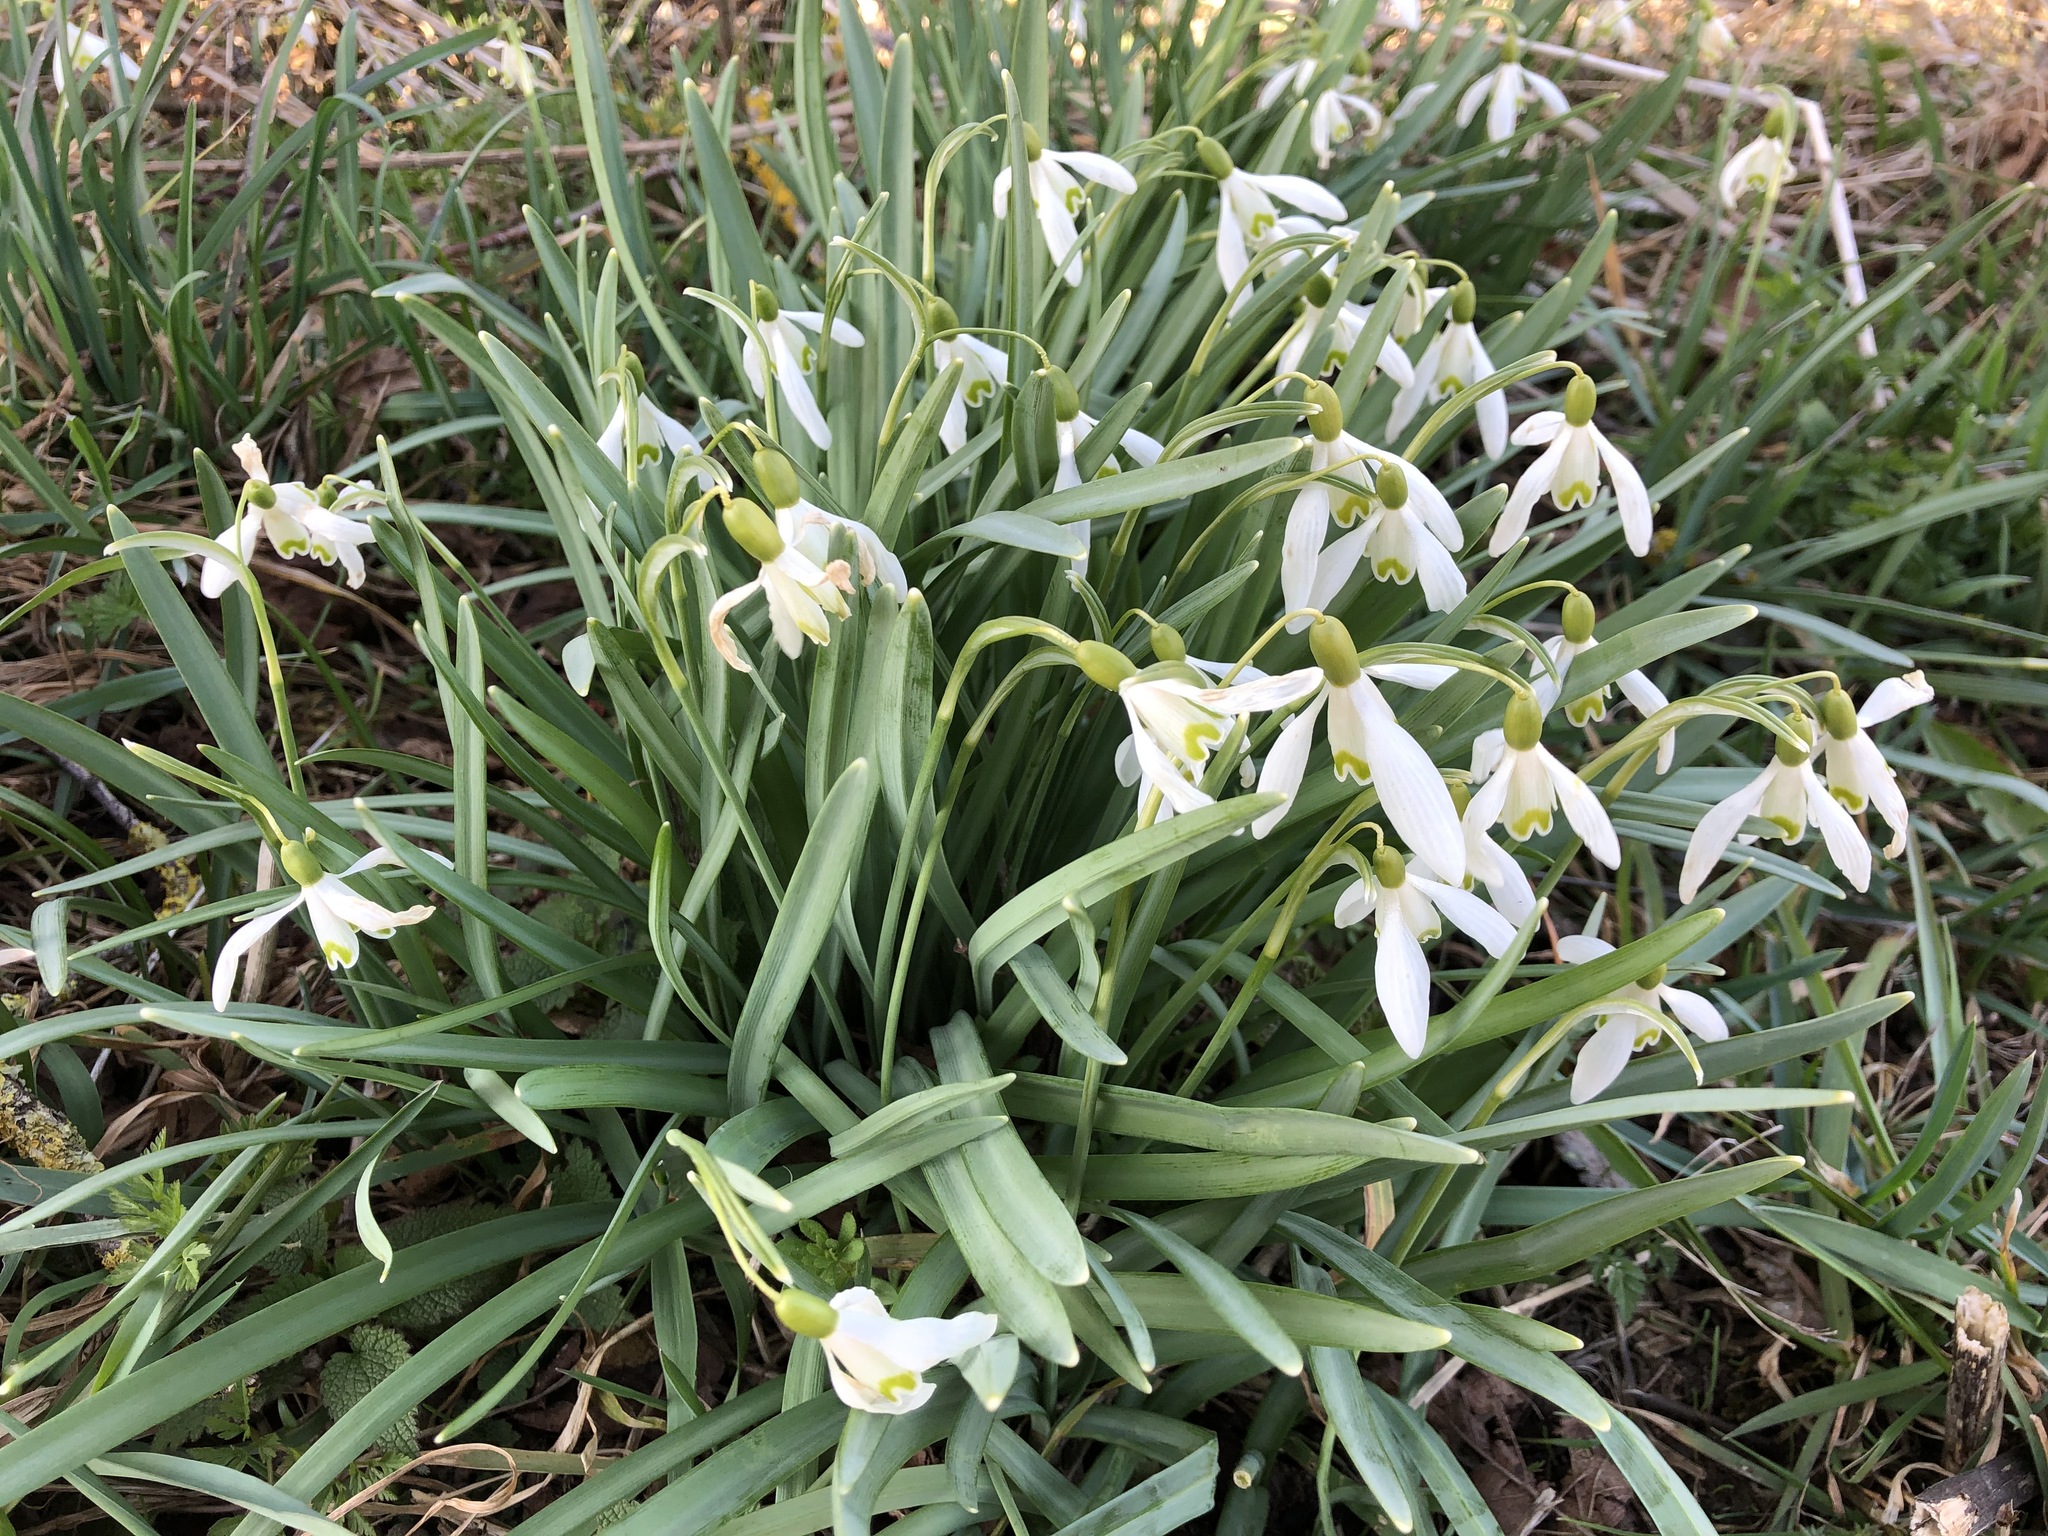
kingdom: Plantae
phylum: Tracheophyta
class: Liliopsida
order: Asparagales
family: Amaryllidaceae
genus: Galanthus
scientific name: Galanthus nivalis
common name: Snowdrop
